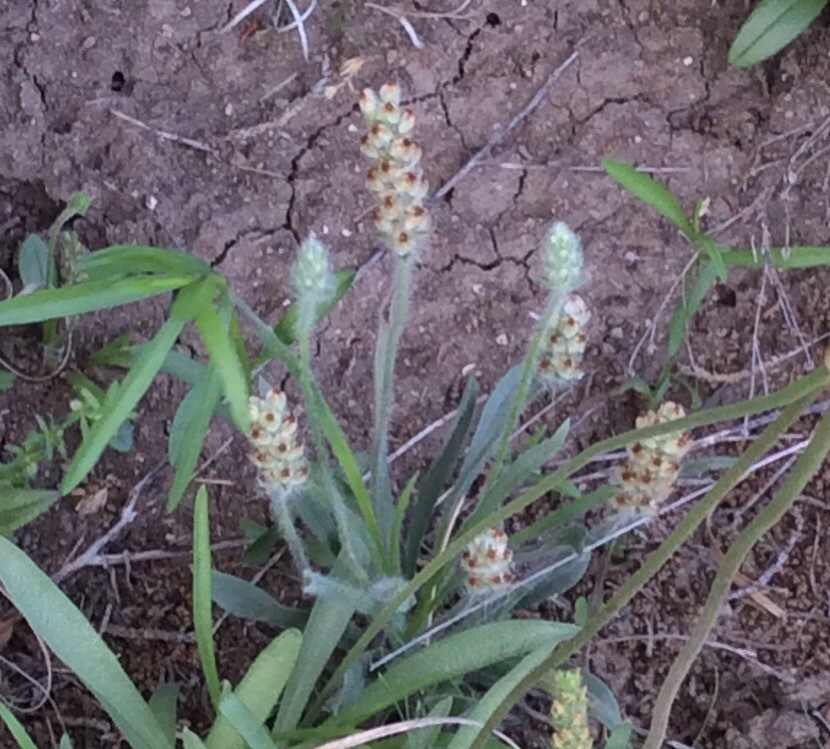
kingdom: Plantae
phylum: Tracheophyta
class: Magnoliopsida
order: Lamiales
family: Plantaginaceae
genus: Plantago
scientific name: Plantago helleri
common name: Heller's plantain
